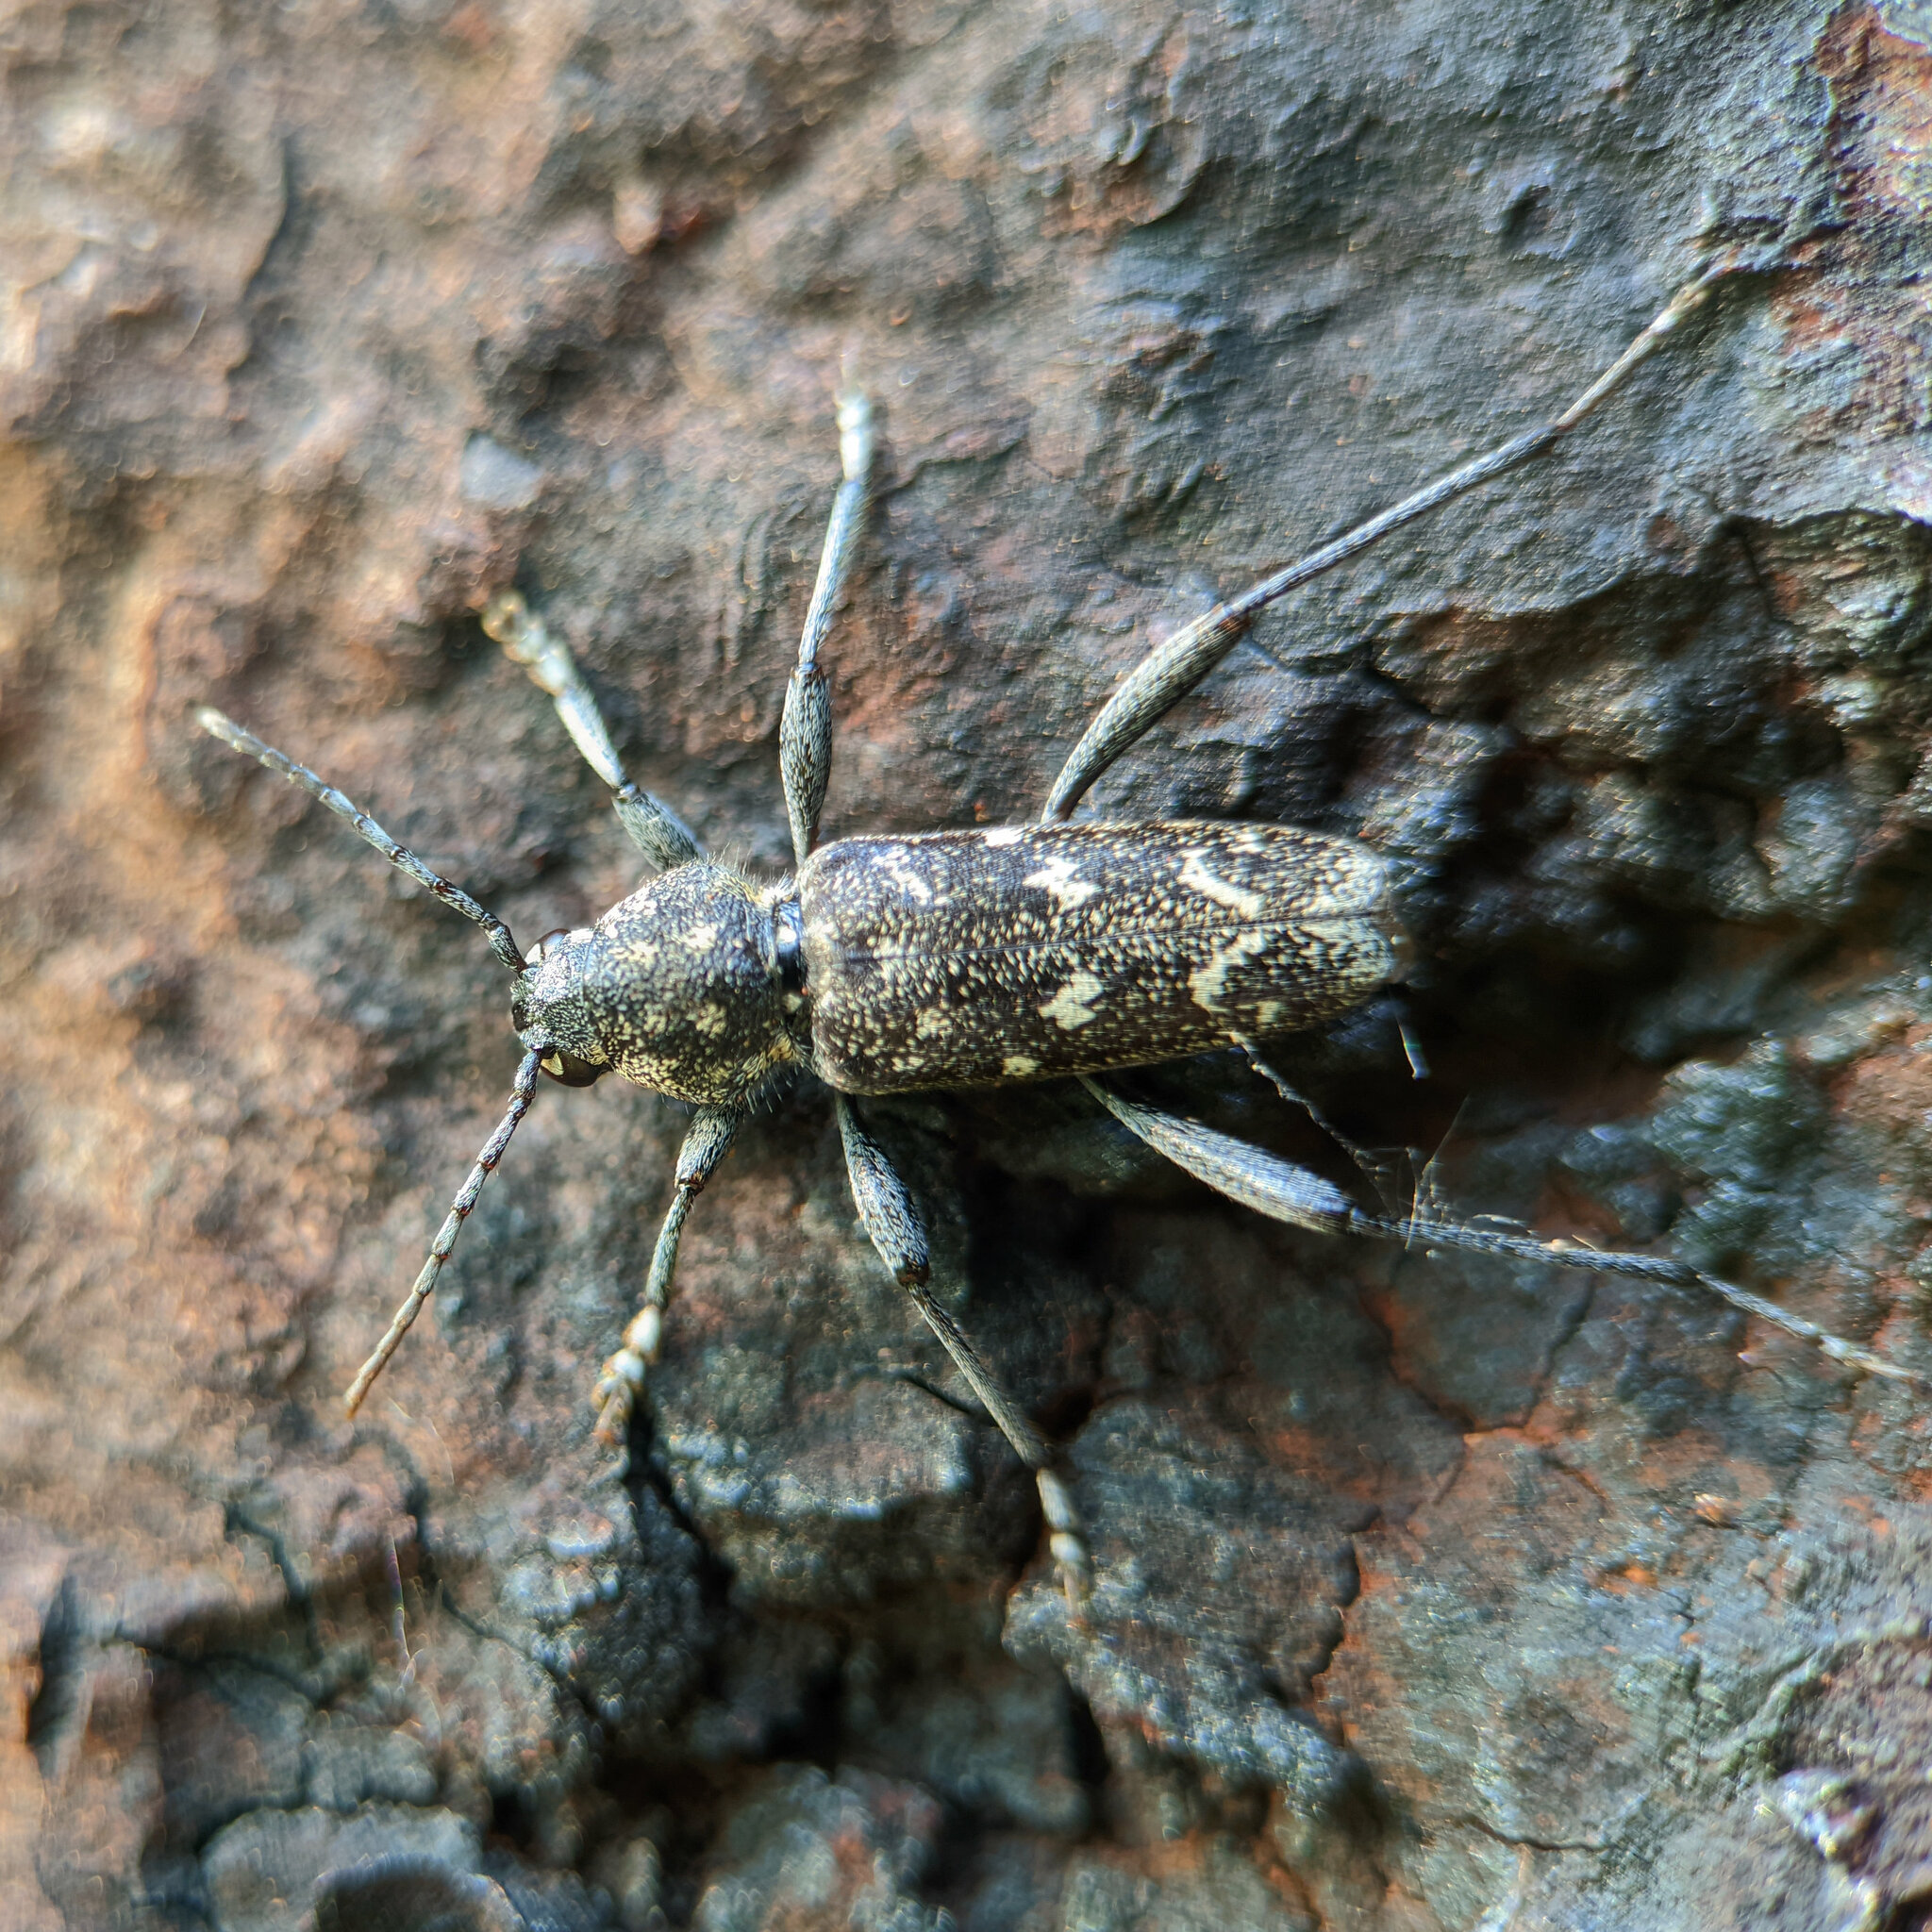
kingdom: Animalia
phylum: Arthropoda
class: Insecta
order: Coleoptera
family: Cerambycidae
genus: Xylotrechus
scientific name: Xylotrechus rusticus
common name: Grey tiger long-horned beetle
